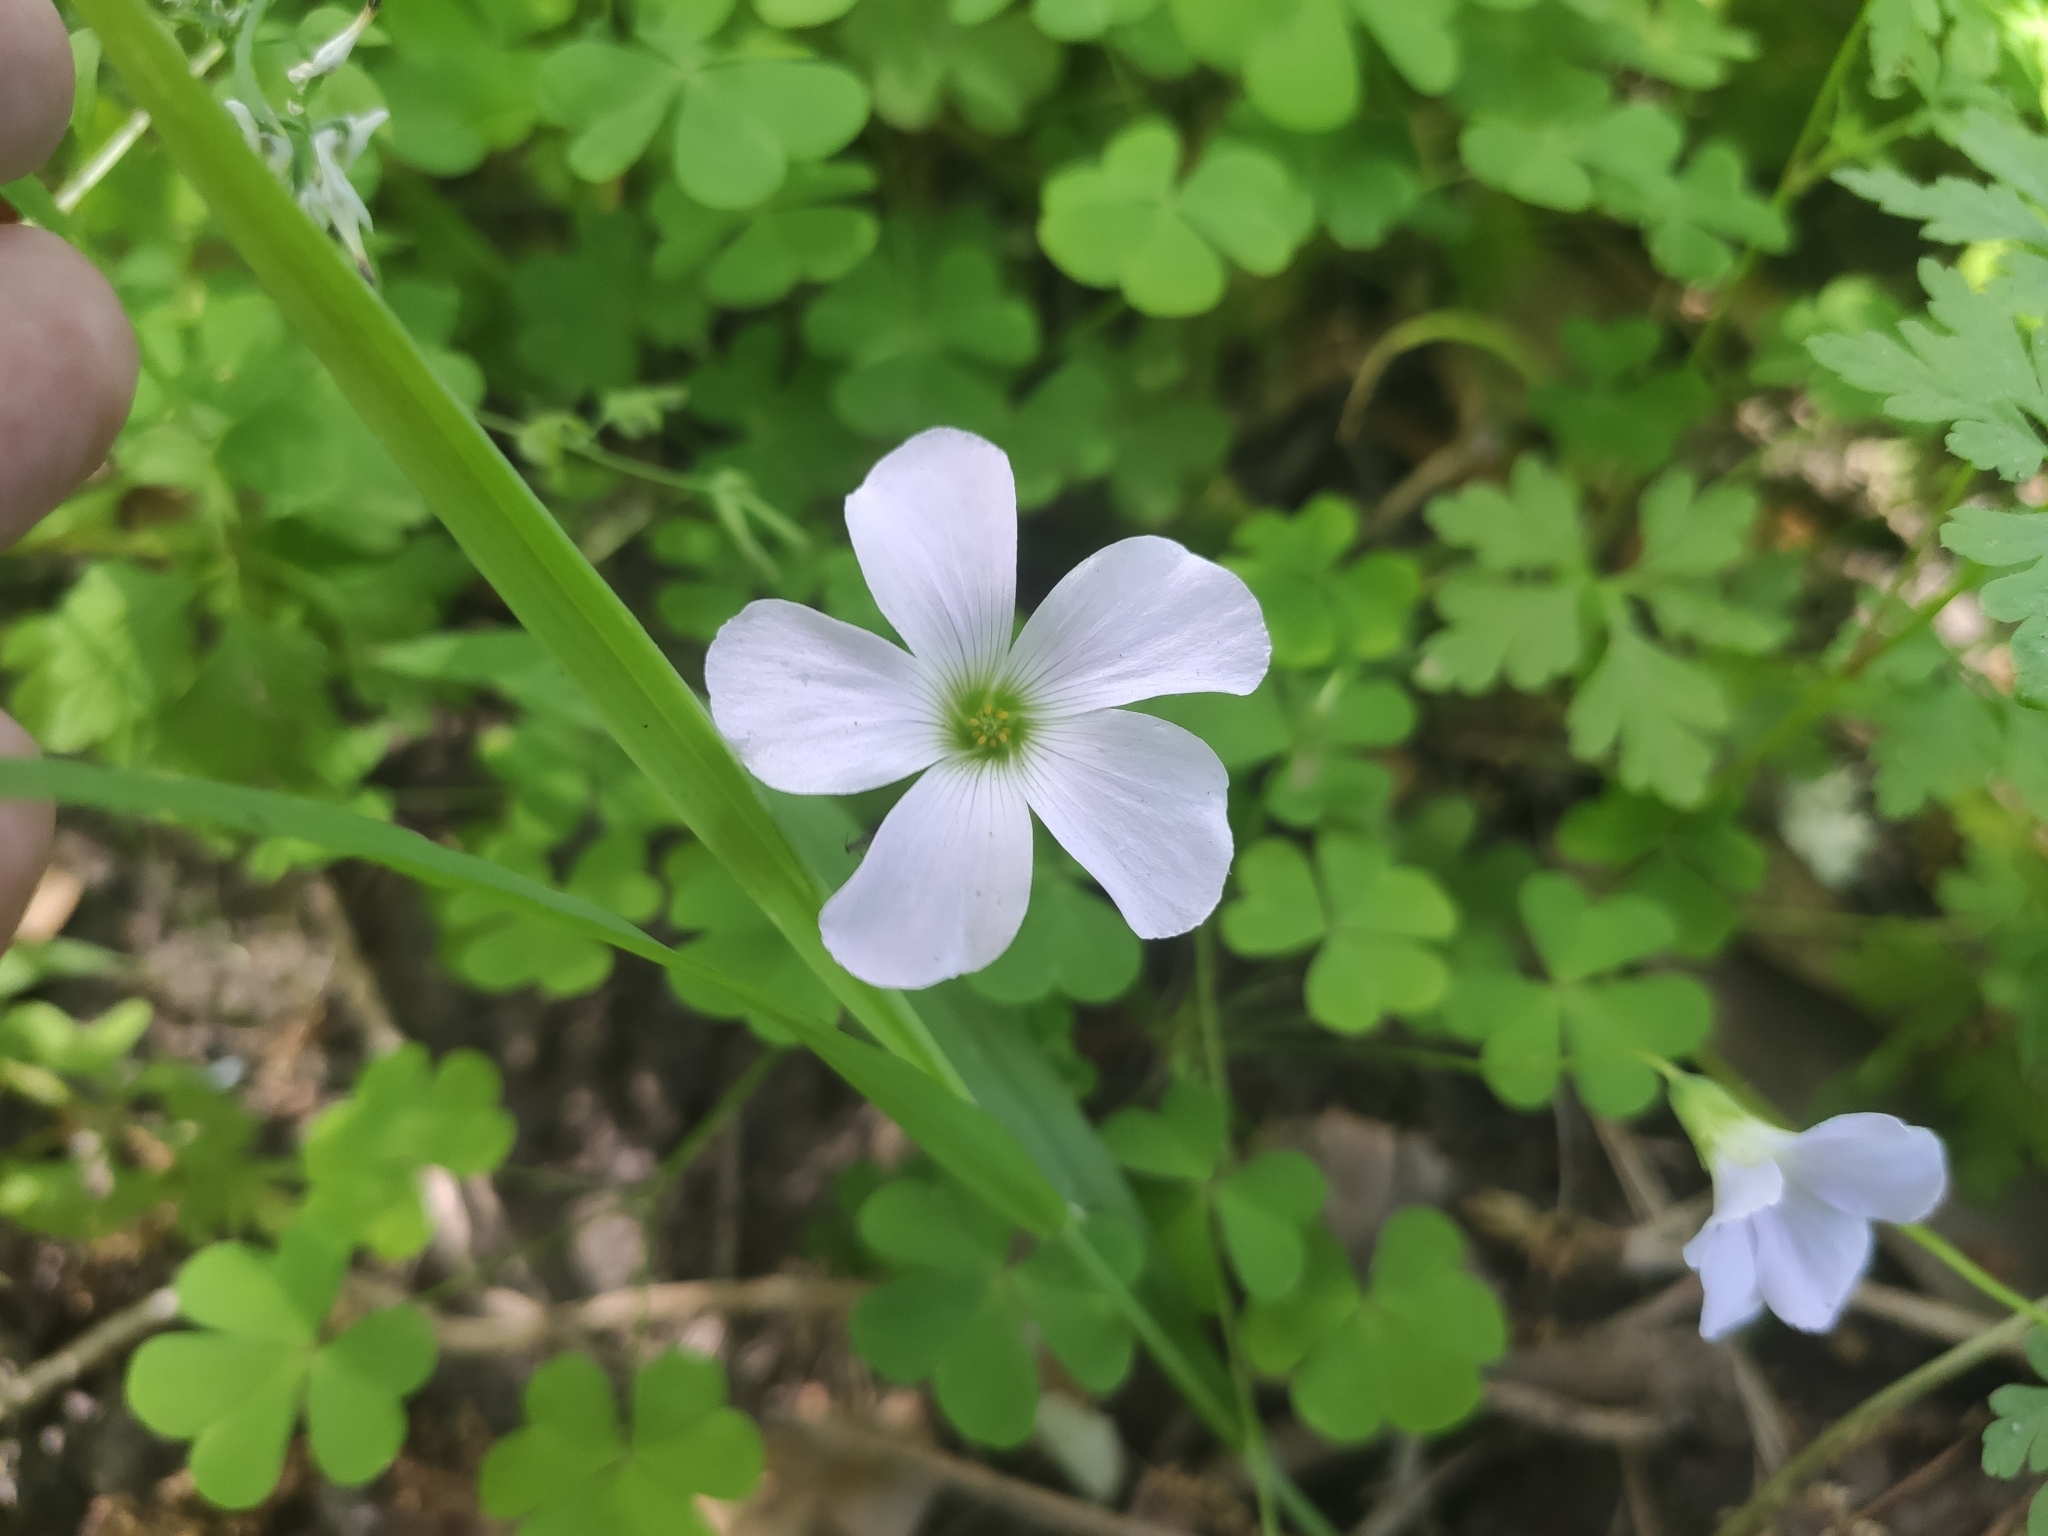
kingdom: Plantae
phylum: Tracheophyta
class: Magnoliopsida
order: Oxalidales
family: Oxalidaceae
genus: Oxalis
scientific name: Oxalis incarnata
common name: Pale pink-sorrel
